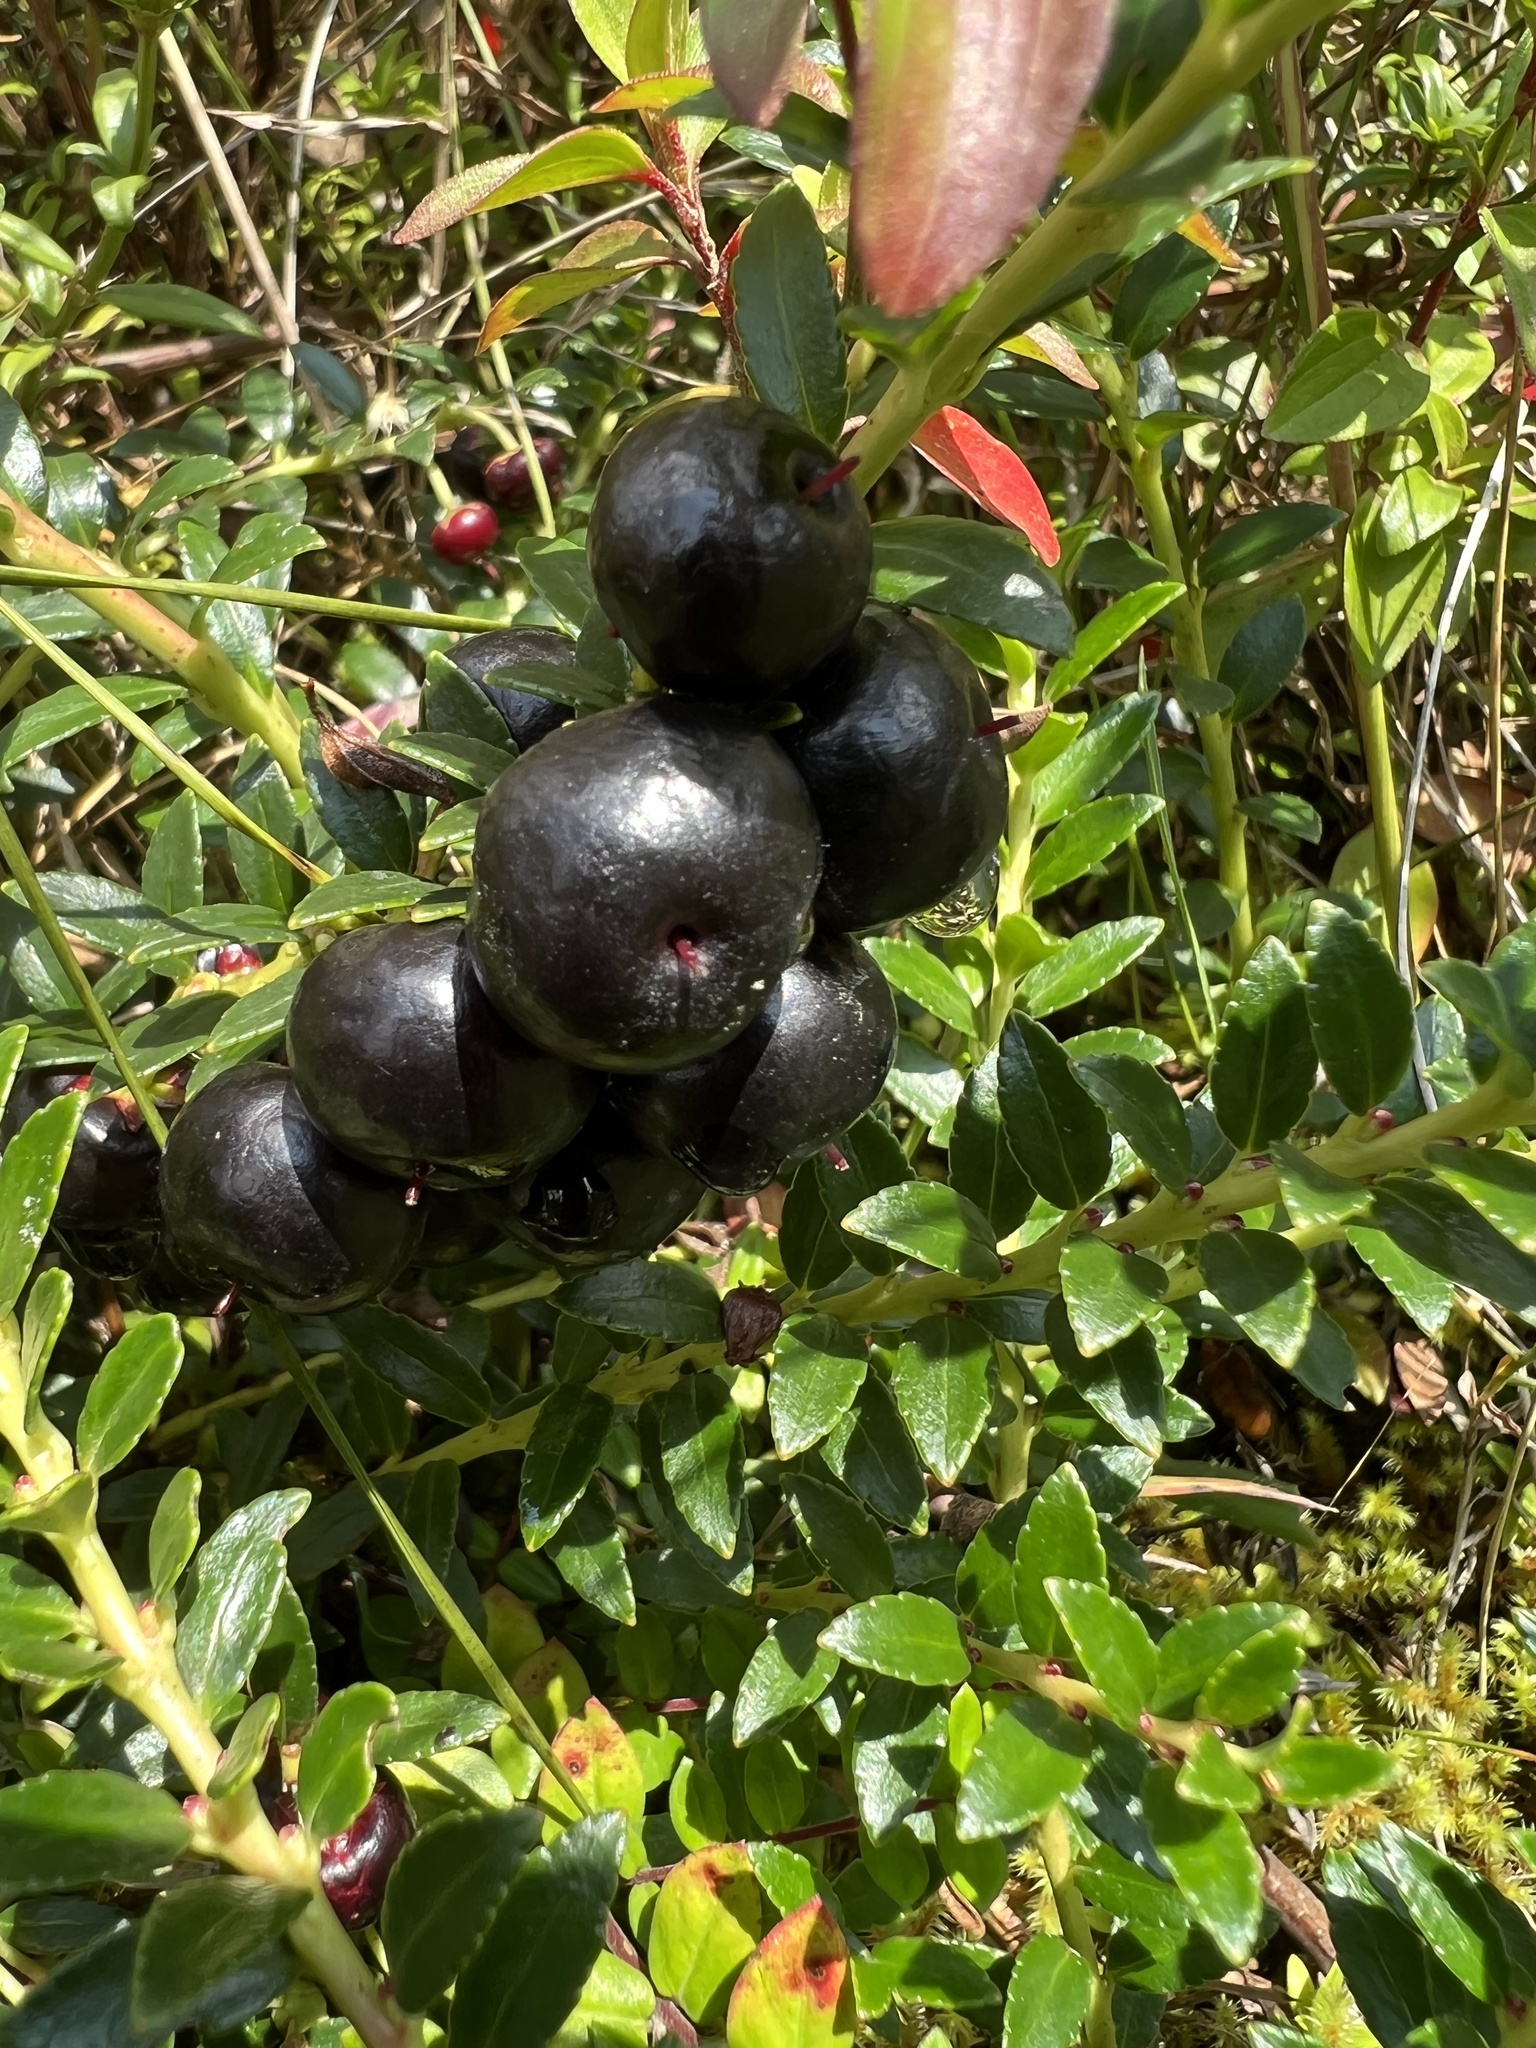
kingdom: Plantae
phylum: Tracheophyta
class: Magnoliopsida
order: Ericales
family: Ericaceae
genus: Gaultheria
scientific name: Gaultheria myrsinoides
